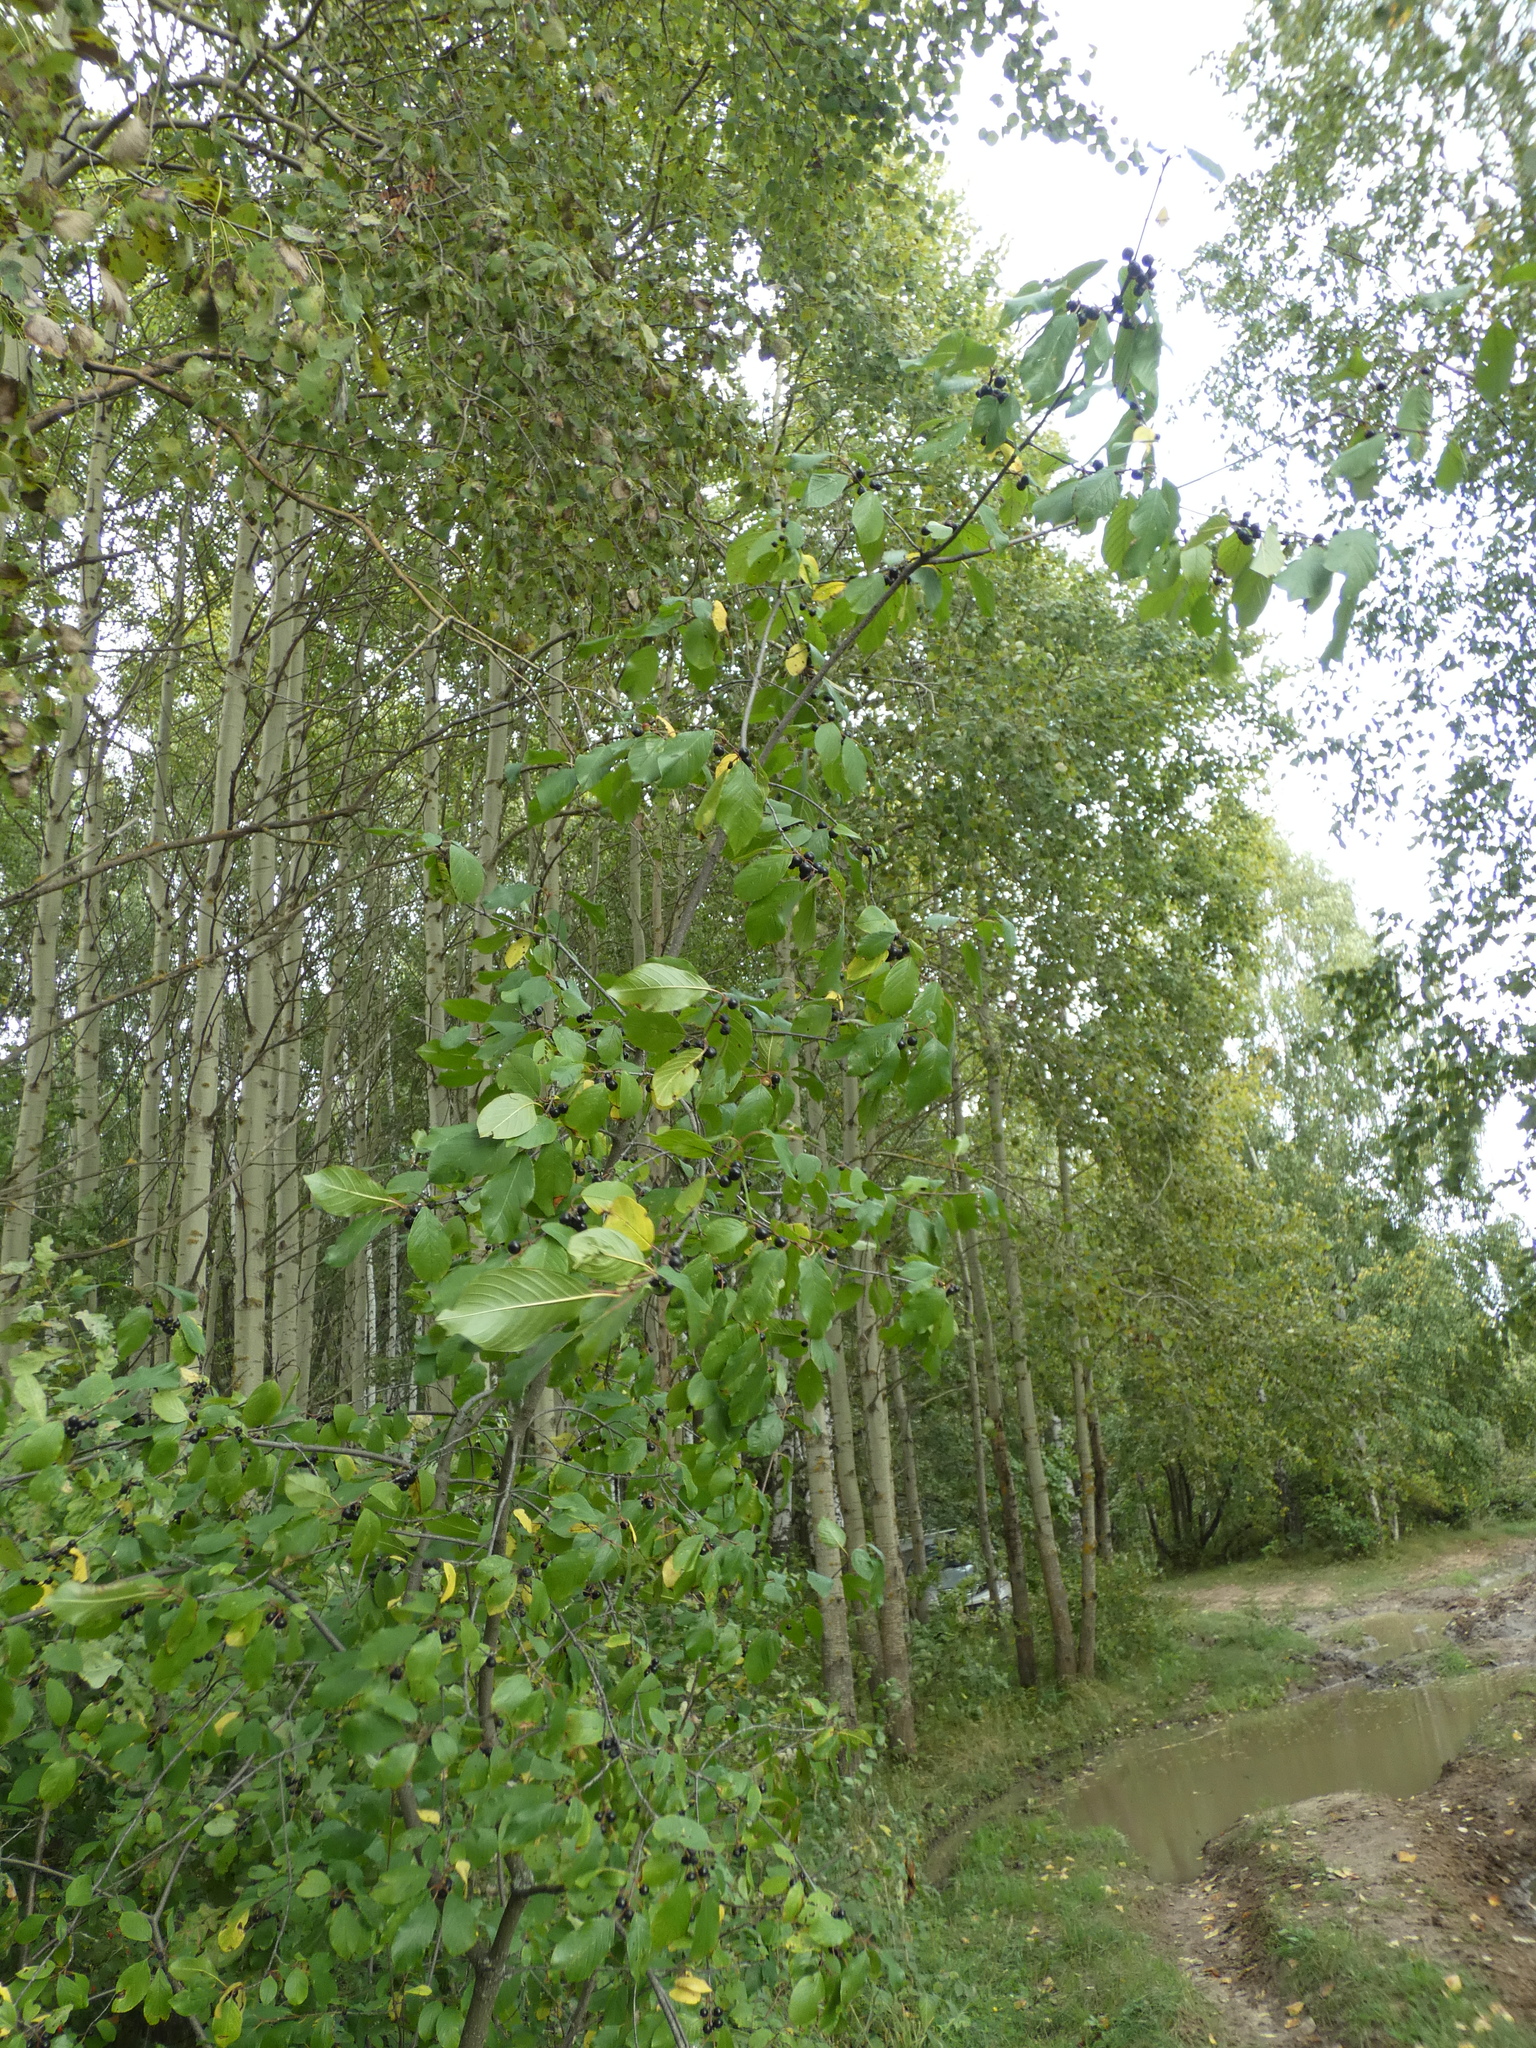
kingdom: Plantae
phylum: Tracheophyta
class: Magnoliopsida
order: Rosales
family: Rhamnaceae
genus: Frangula
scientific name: Frangula alnus
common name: Alder buckthorn
